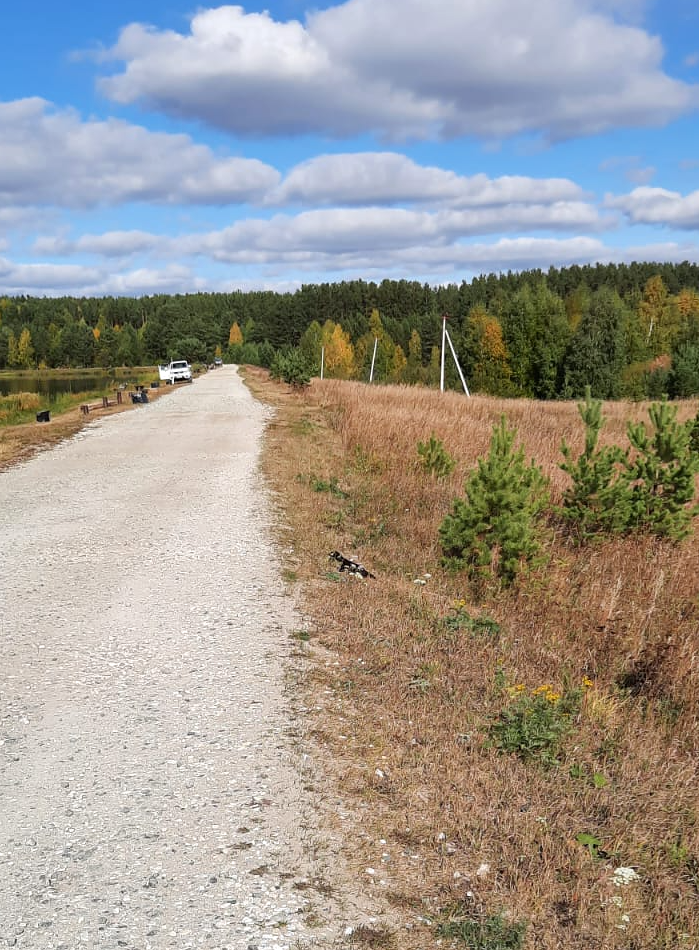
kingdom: Animalia
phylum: Chordata
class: Mammalia
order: Carnivora
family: Mustelidae
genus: Mustela
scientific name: Mustela
